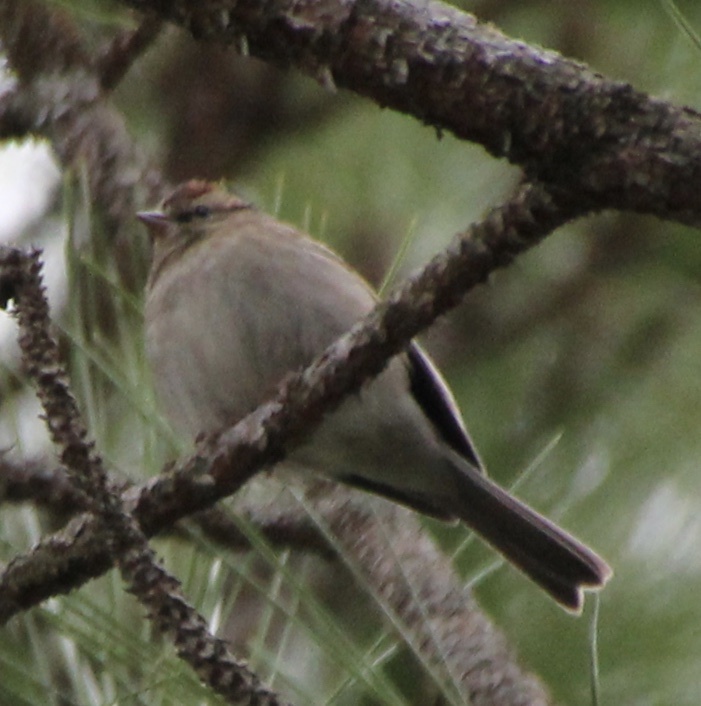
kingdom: Animalia
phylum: Chordata
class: Aves
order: Passeriformes
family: Passerellidae
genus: Spizella
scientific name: Spizella passerina
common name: Chipping sparrow
